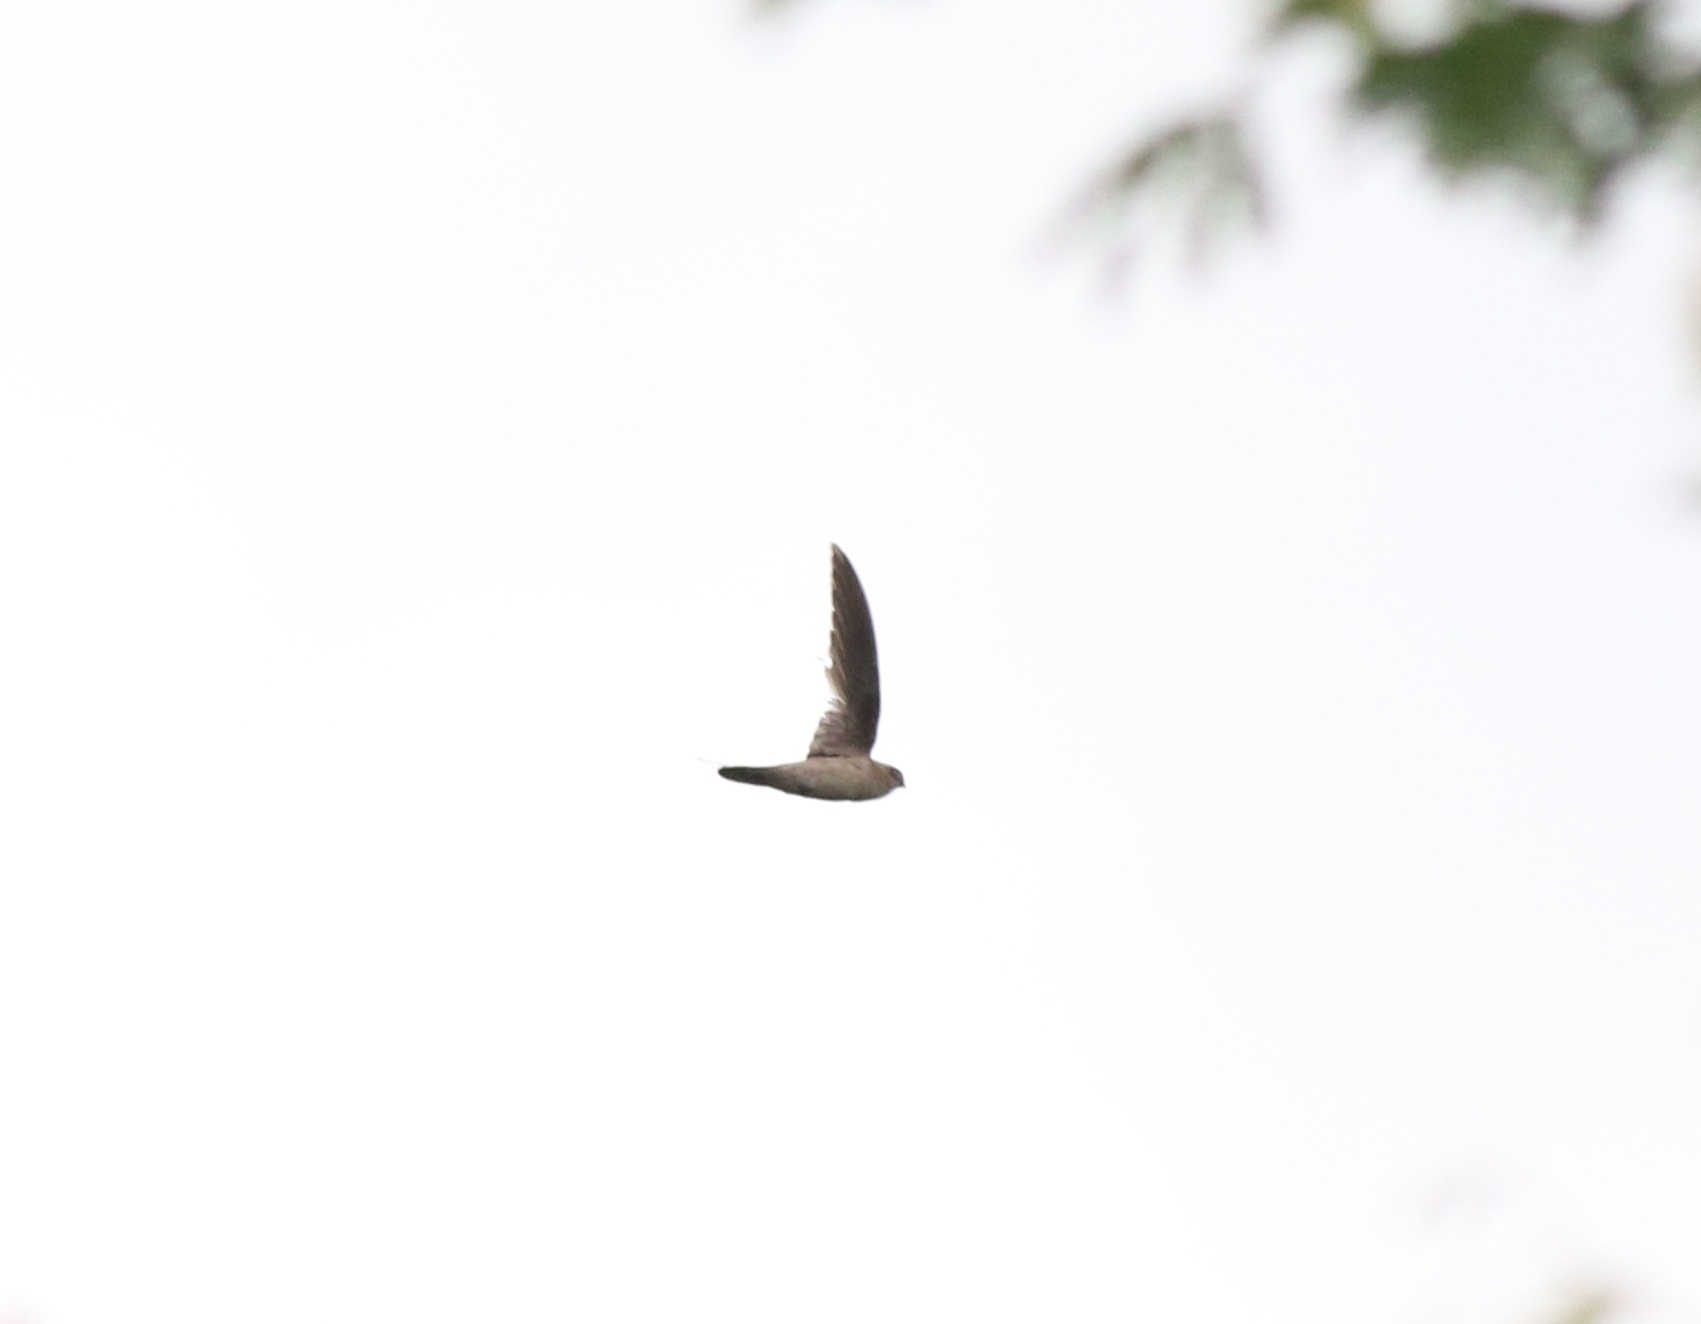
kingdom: Animalia
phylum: Chordata
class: Aves
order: Apodiformes
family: Apodidae
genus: Aerodramus
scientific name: Aerodramus unicolor
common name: Indian swiftlet
